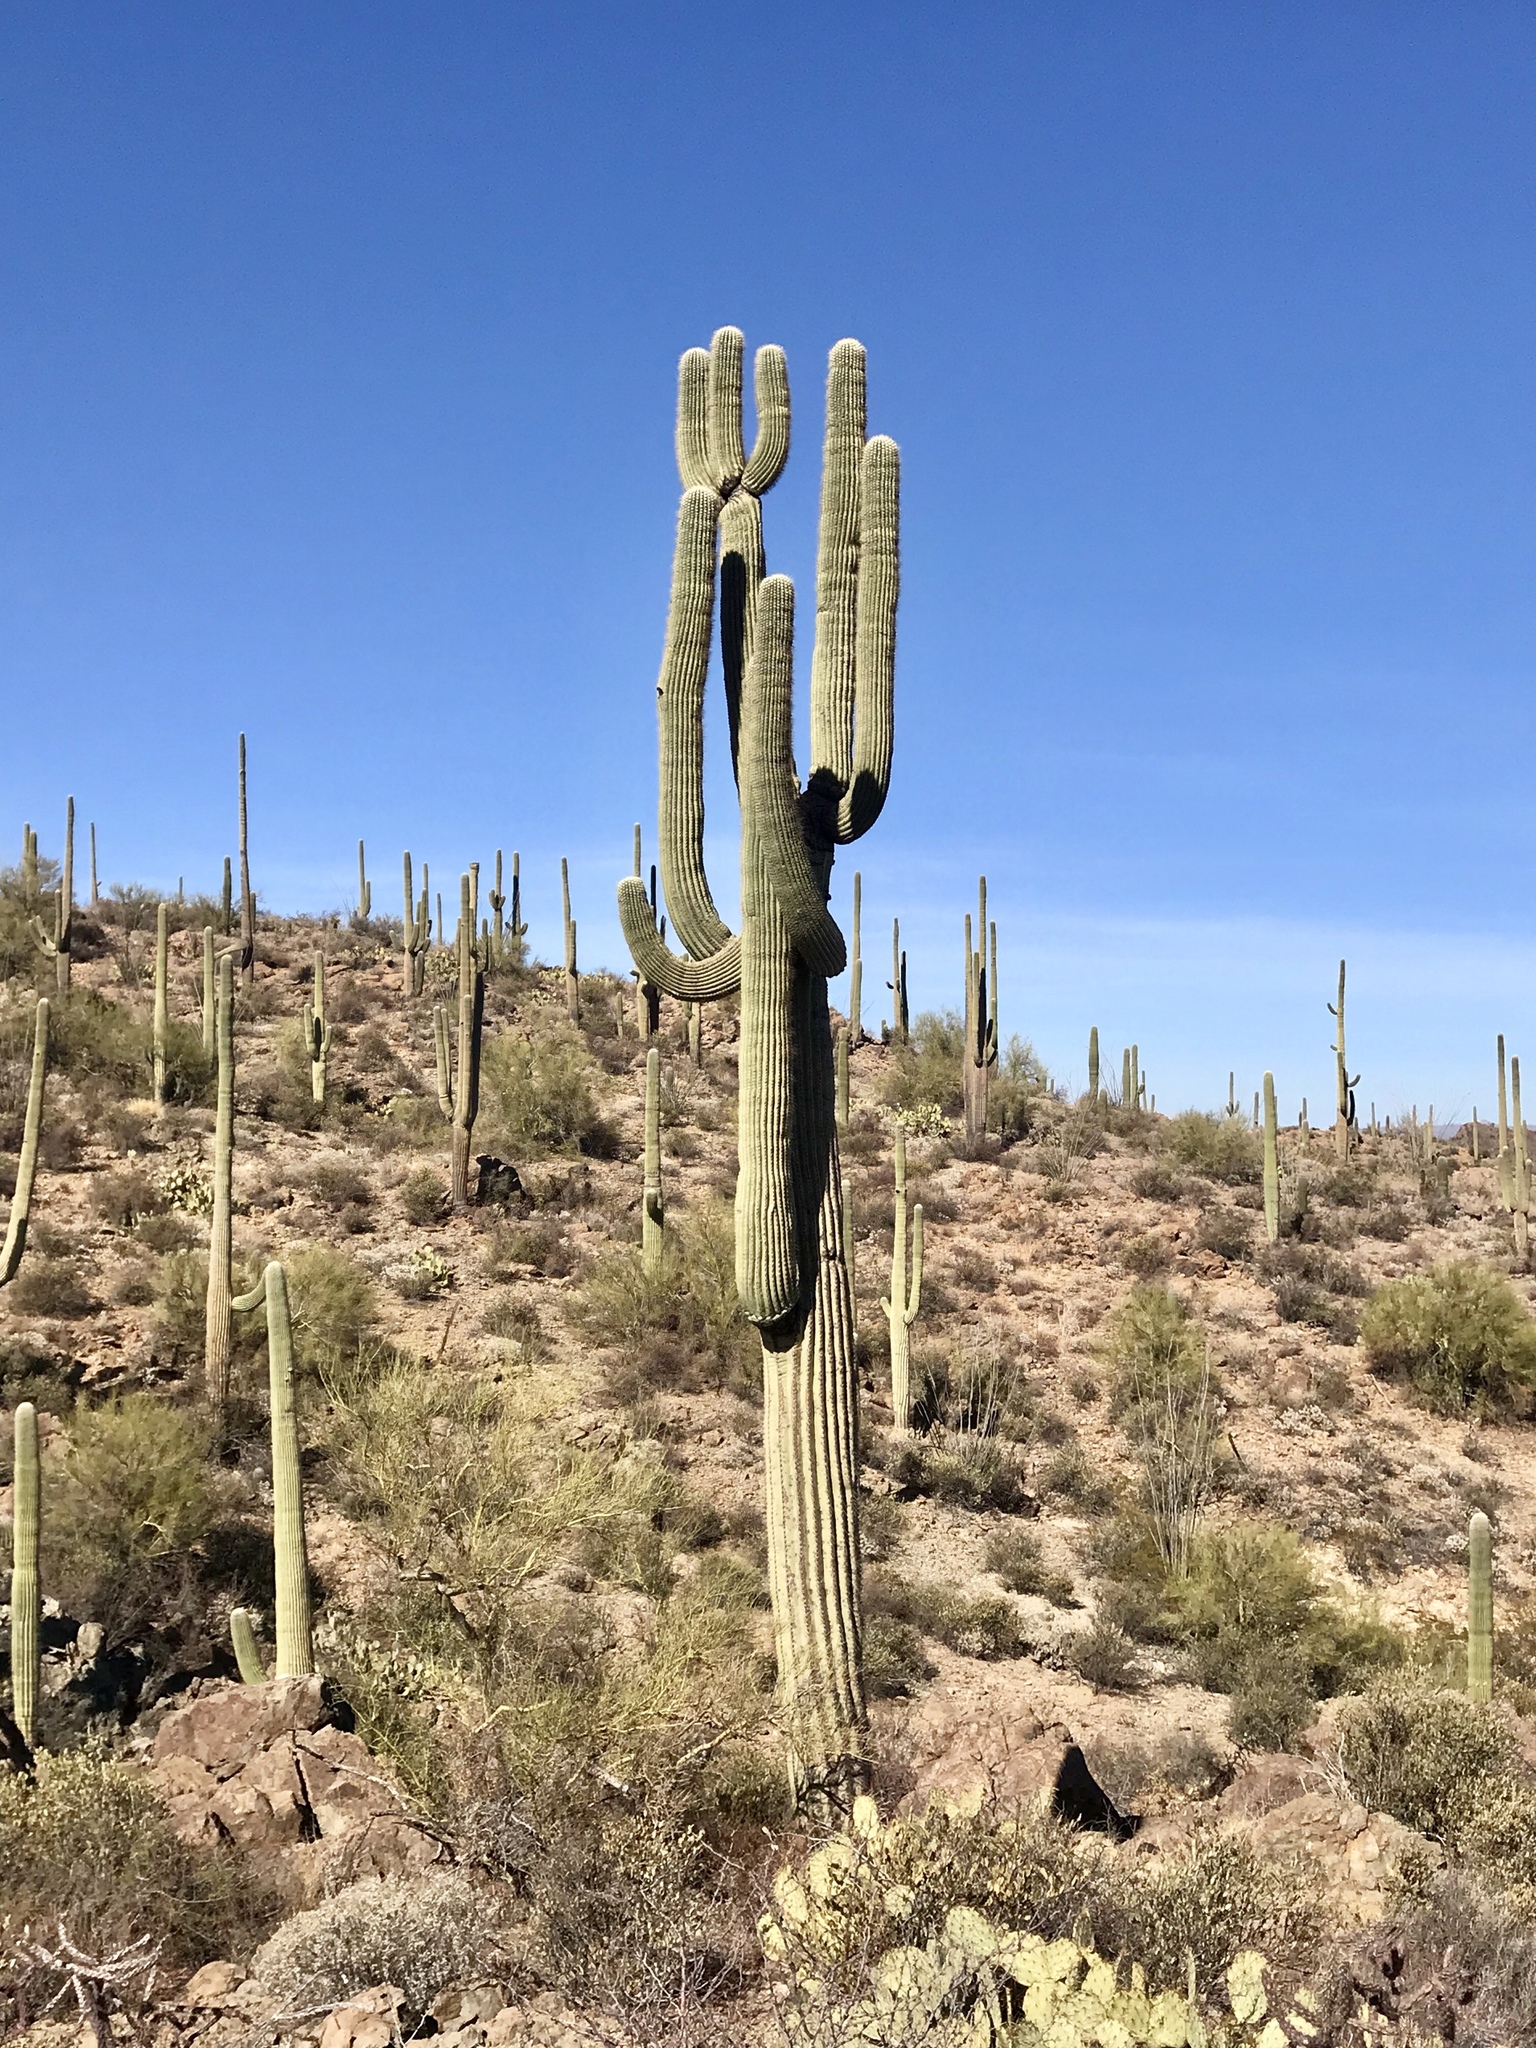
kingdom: Plantae
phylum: Tracheophyta
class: Magnoliopsida
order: Caryophyllales
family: Cactaceae
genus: Carnegiea
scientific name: Carnegiea gigantea
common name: Saguaro
